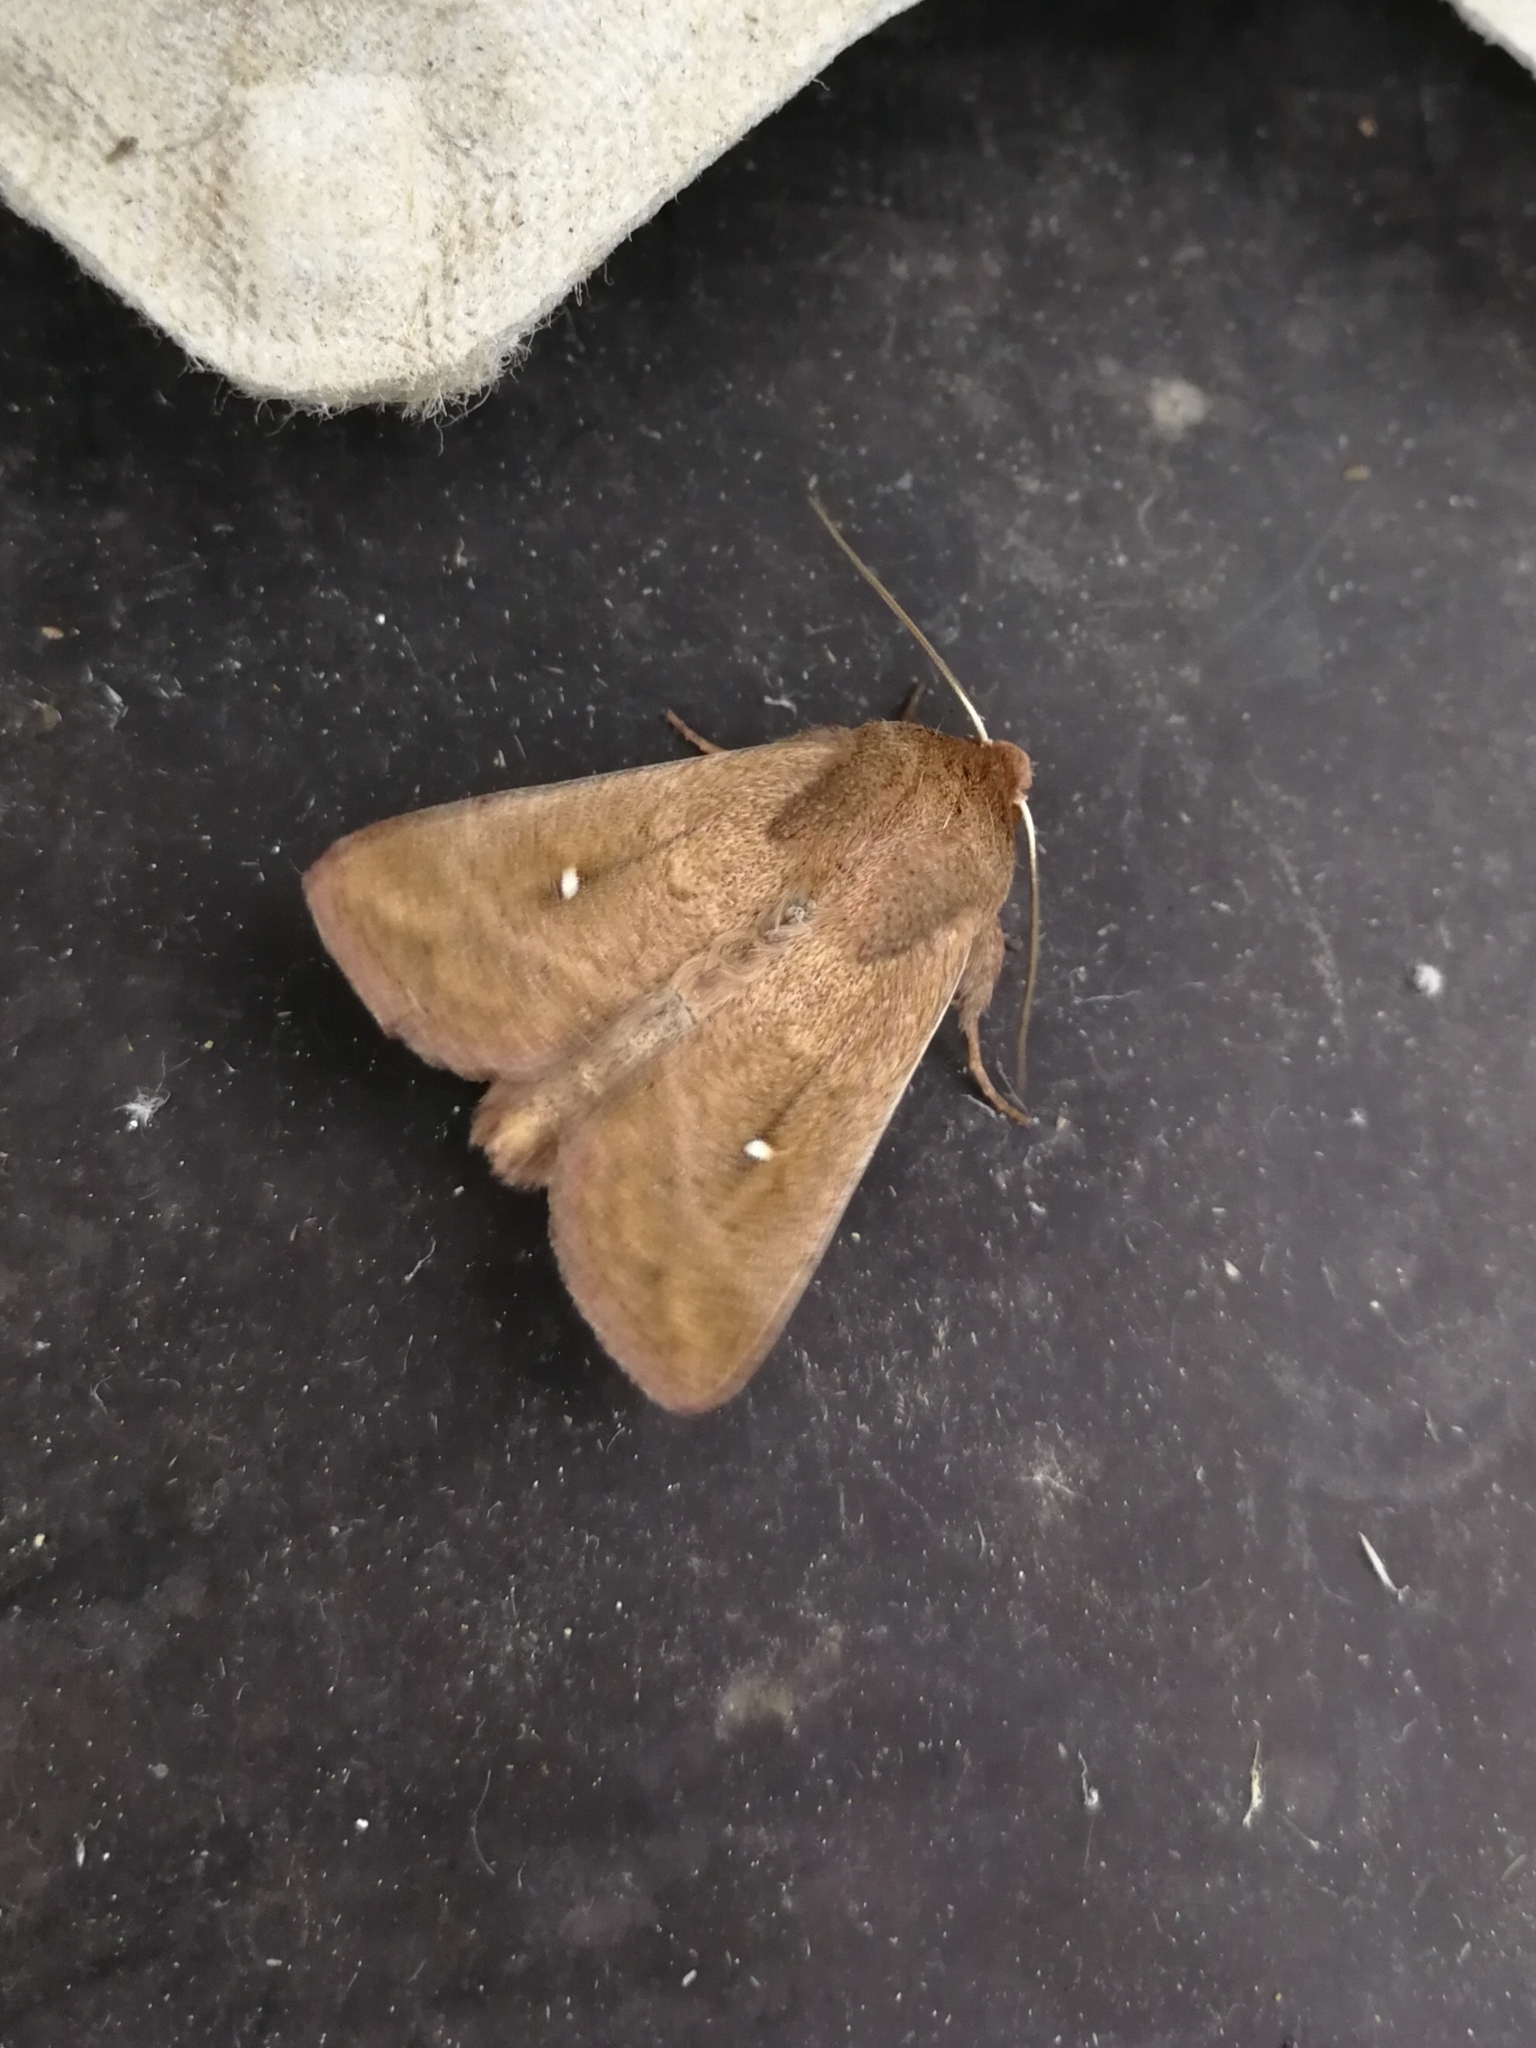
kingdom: Animalia
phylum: Arthropoda
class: Insecta
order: Lepidoptera
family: Noctuidae
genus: Mythimna
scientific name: Mythimna albipuncta
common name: White-point
